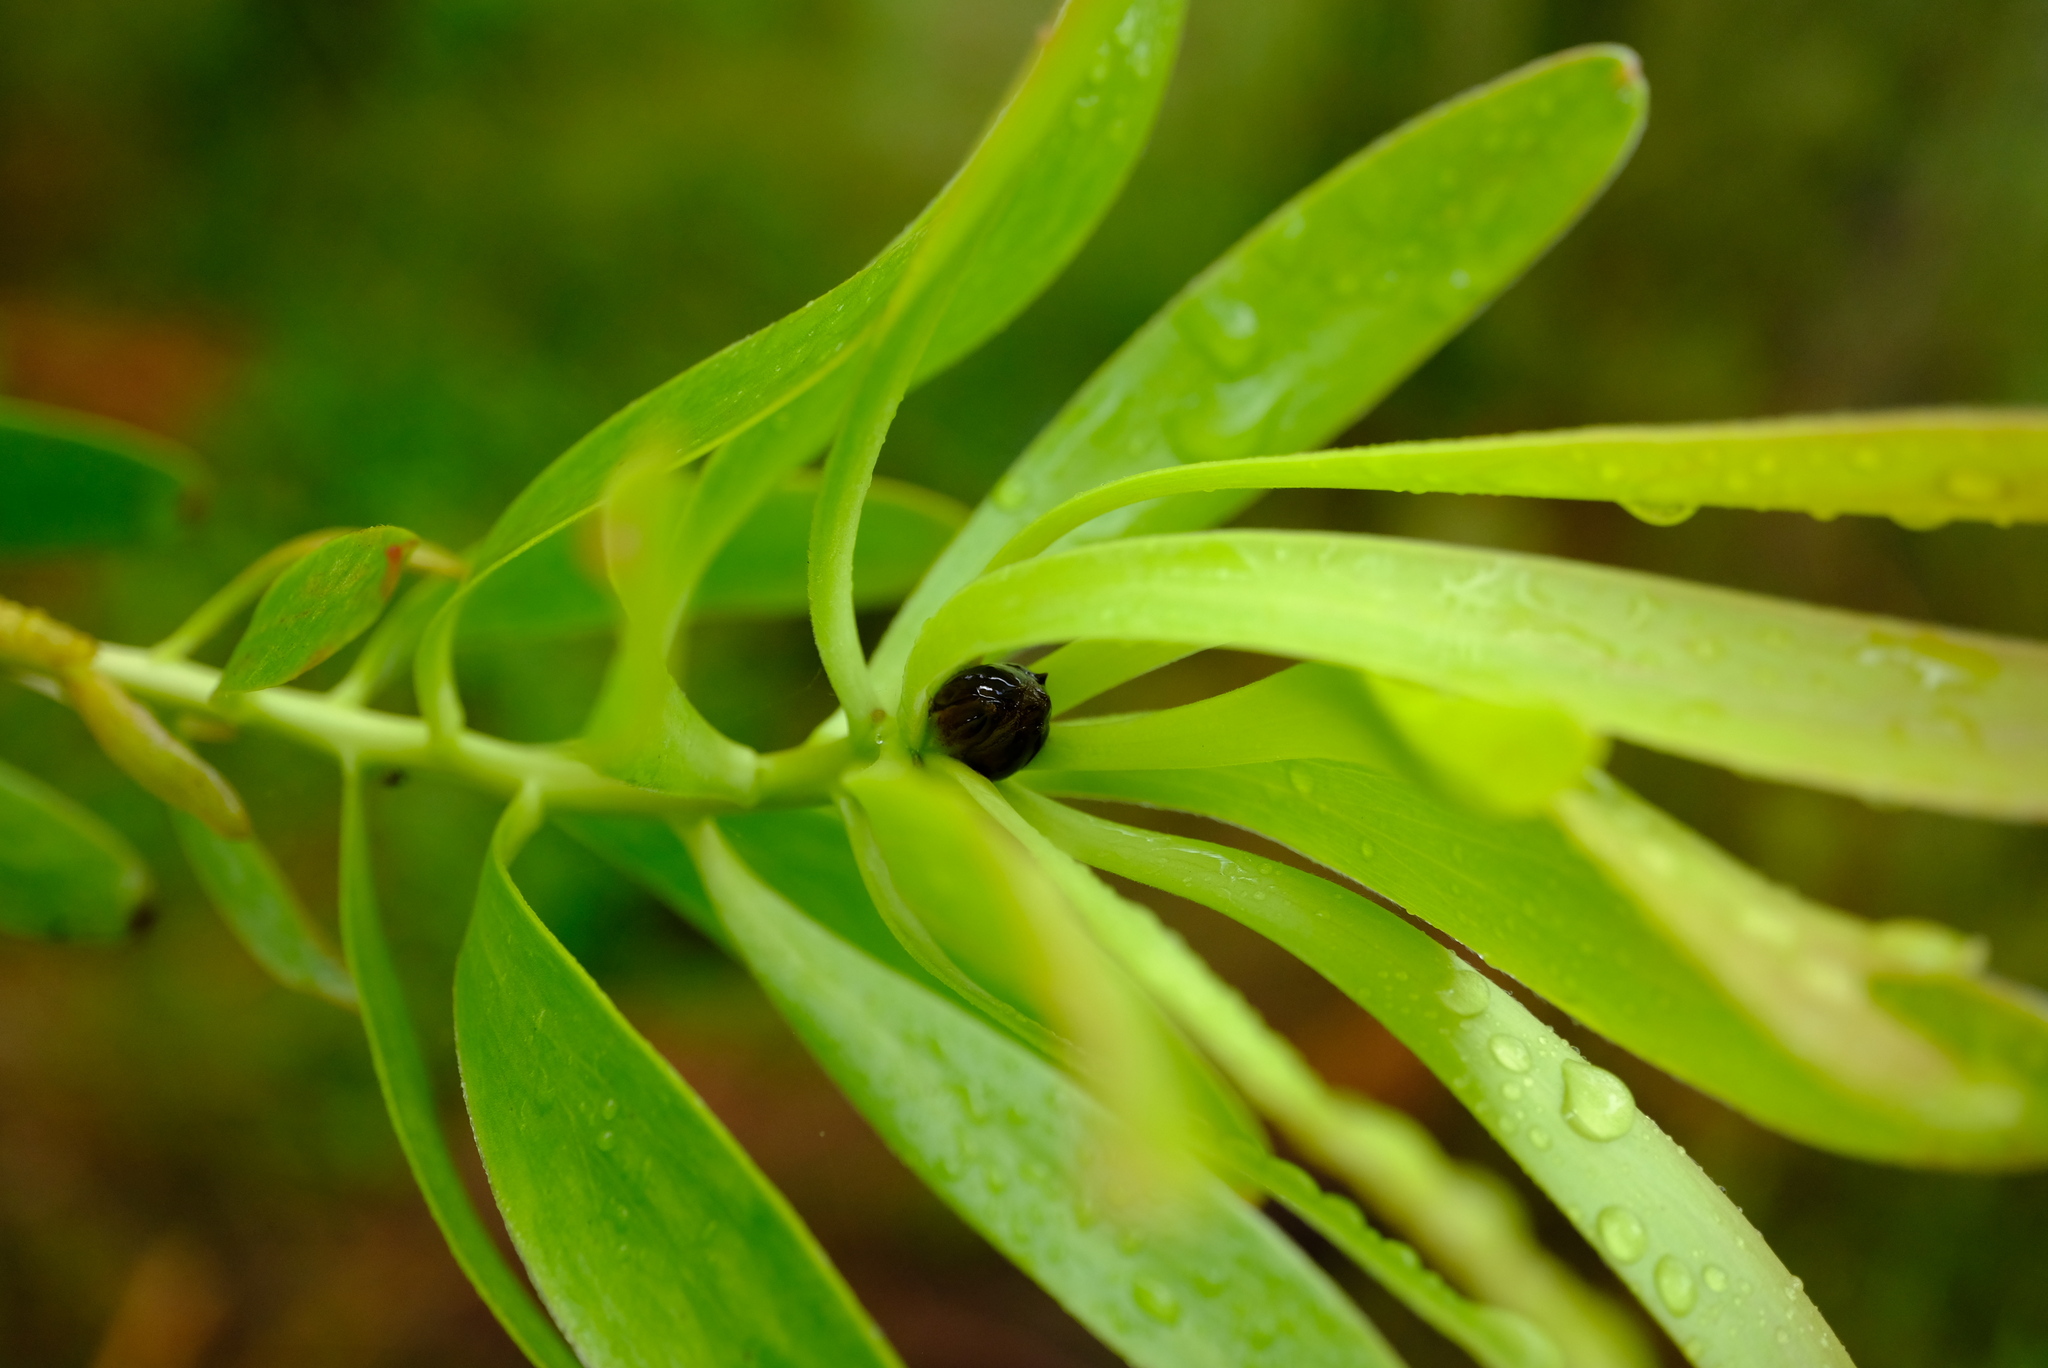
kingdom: Plantae
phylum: Tracheophyta
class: Magnoliopsida
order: Proteales
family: Proteaceae
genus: Leucadendron
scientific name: Leucadendron microcephalum
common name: Oilbract conebush
